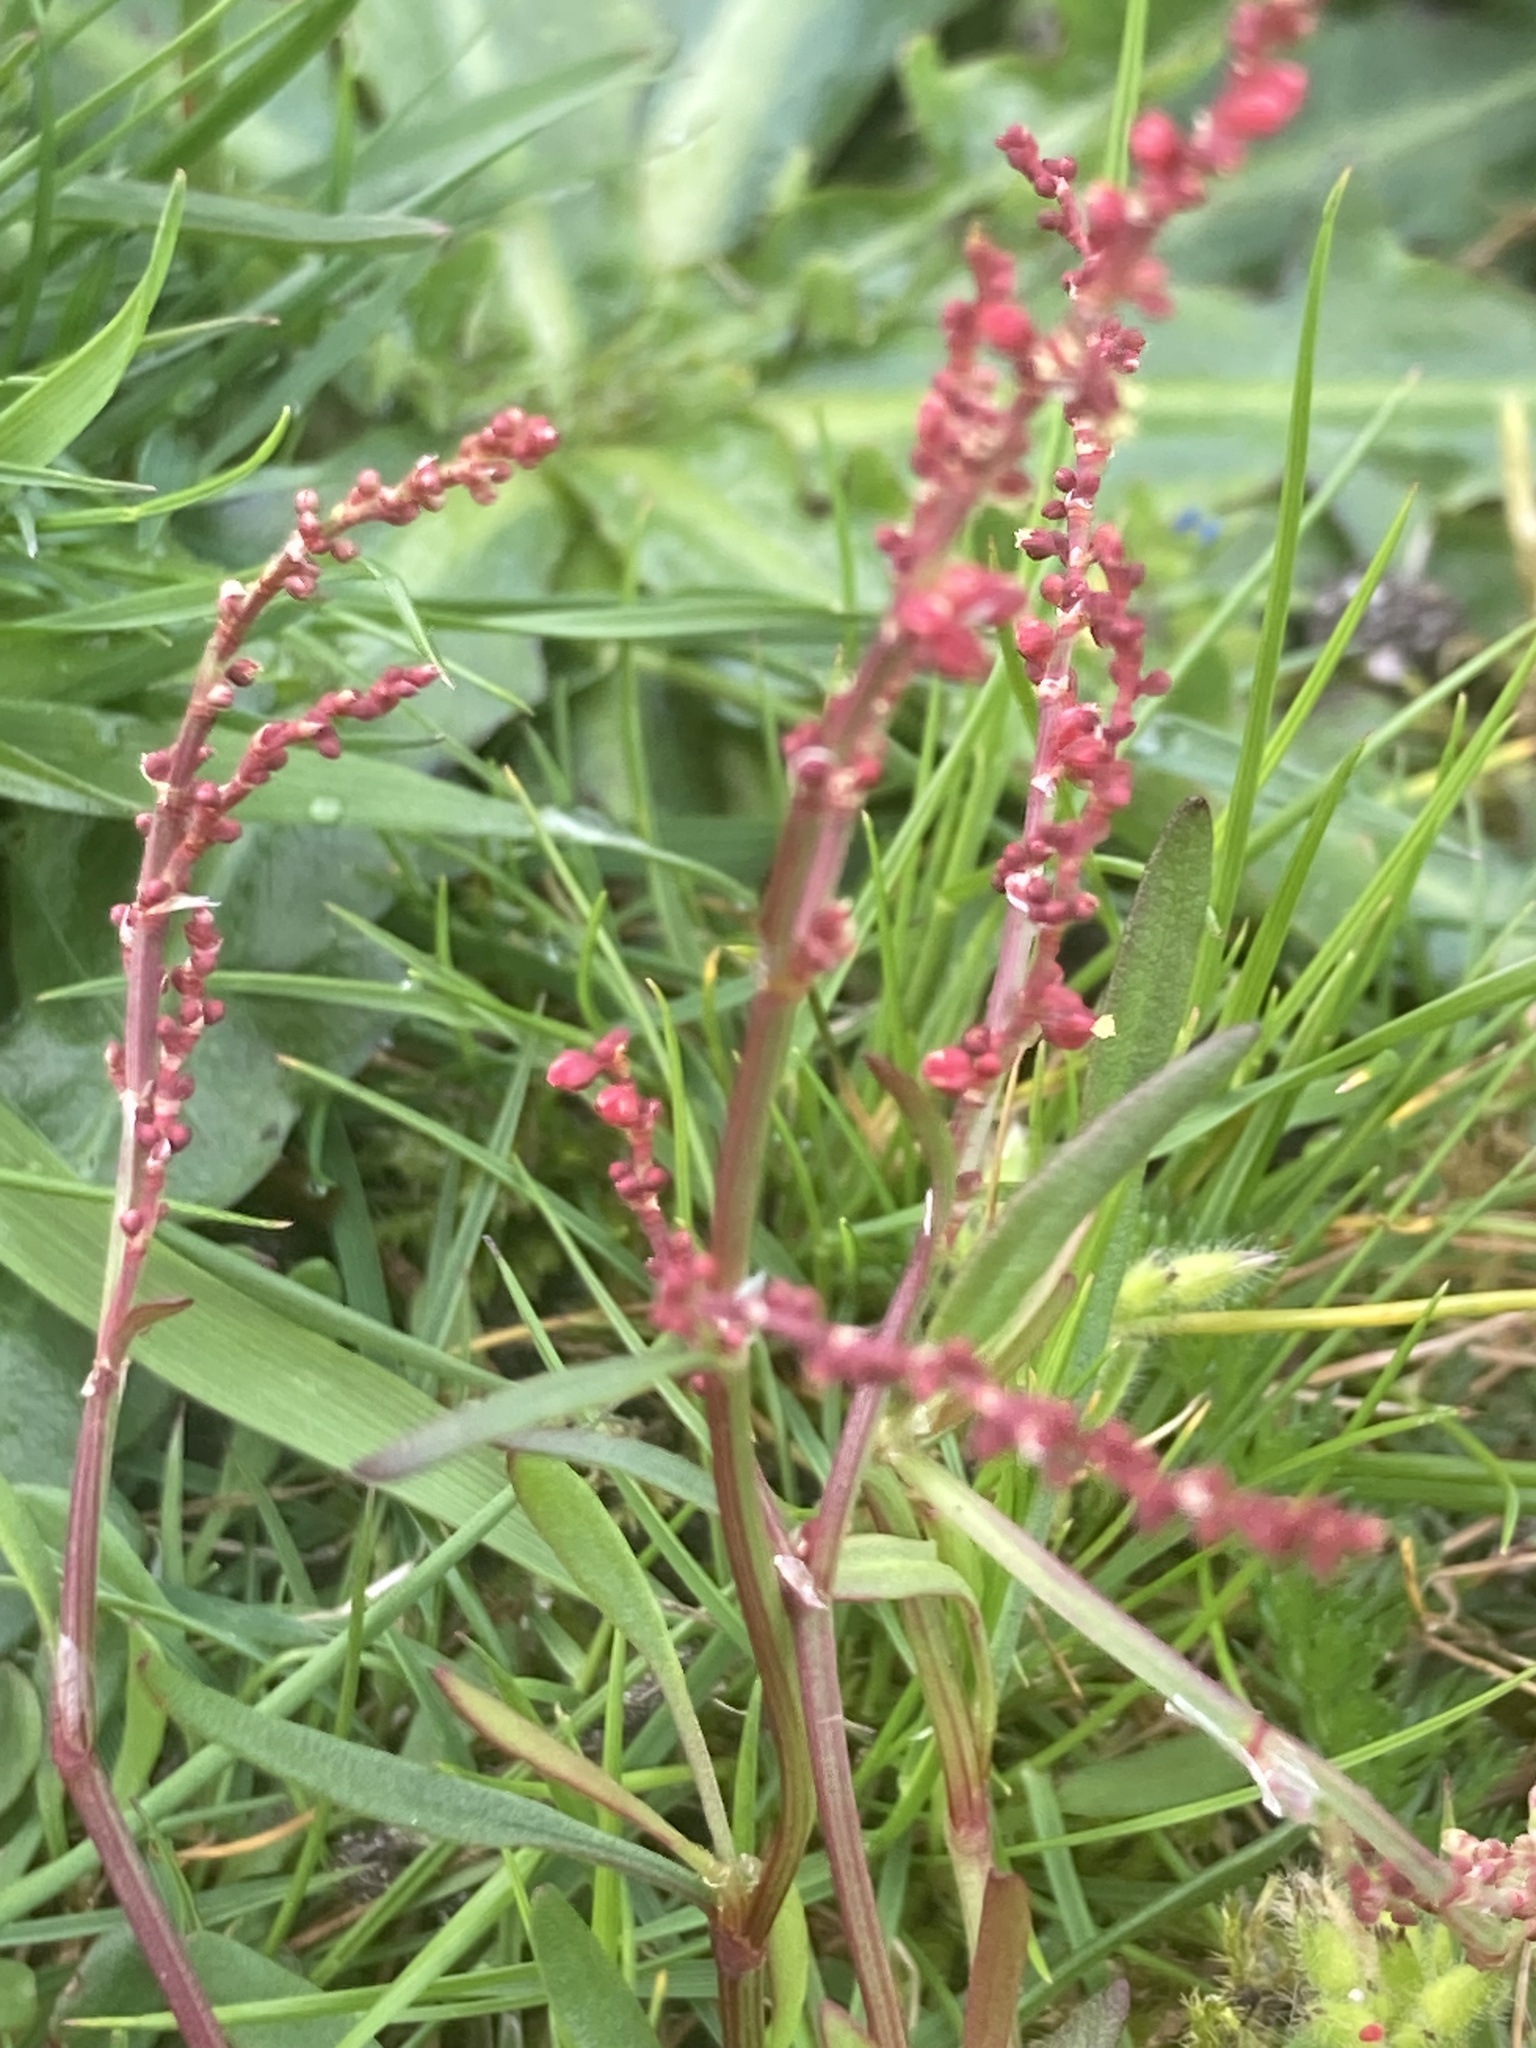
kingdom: Plantae
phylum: Tracheophyta
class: Magnoliopsida
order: Caryophyllales
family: Polygonaceae
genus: Rumex
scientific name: Rumex acetosella
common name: Common sheep sorrel
